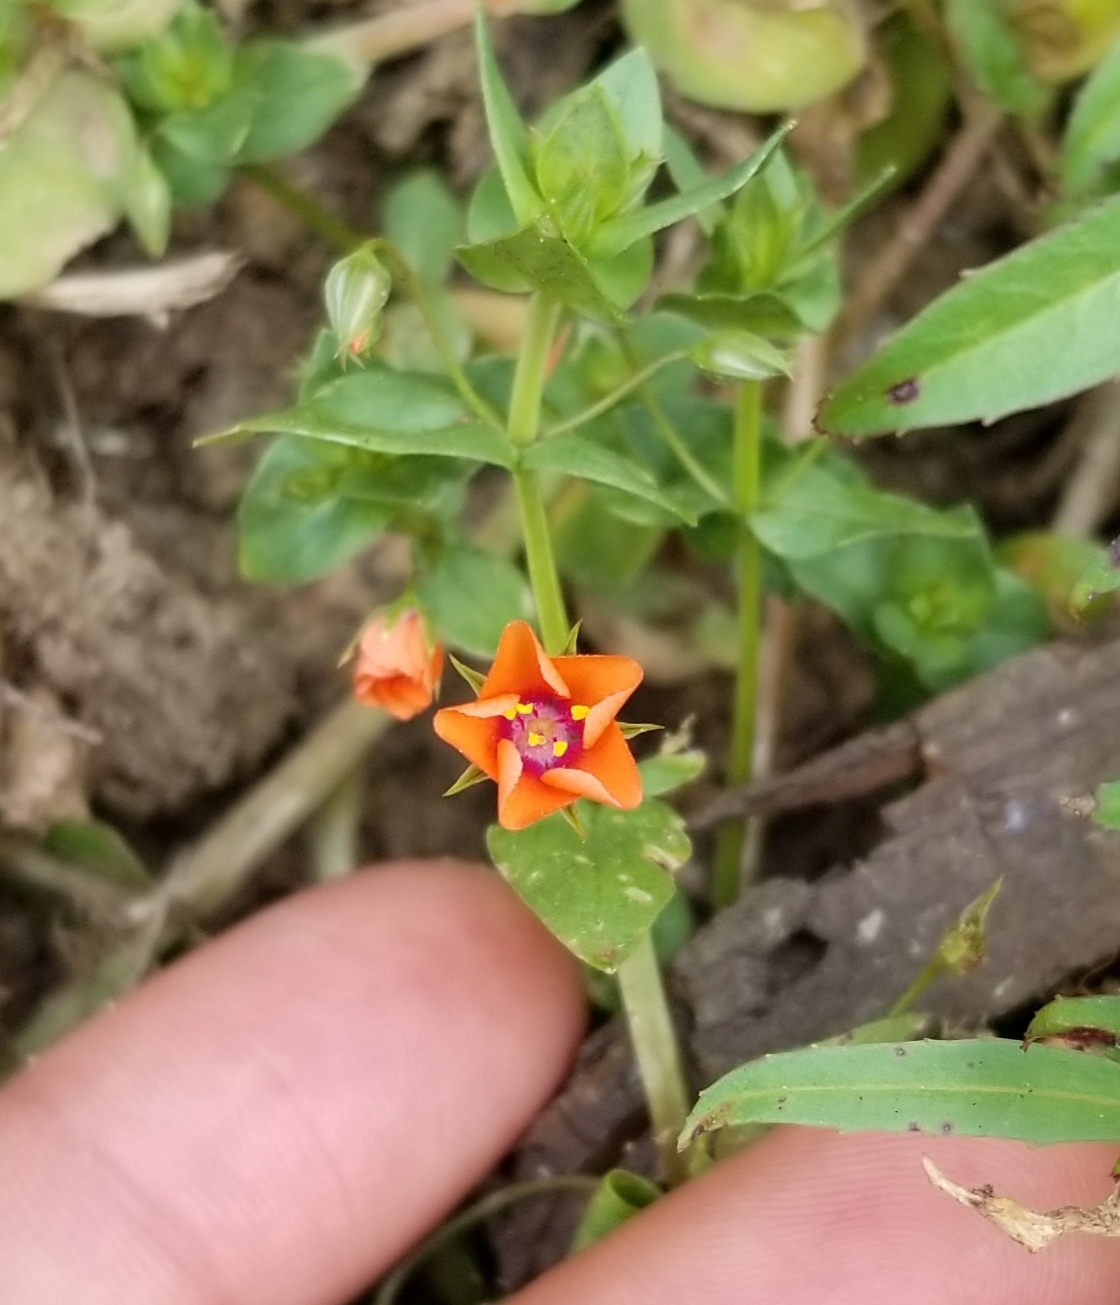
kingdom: Plantae
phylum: Tracheophyta
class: Magnoliopsida
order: Ericales
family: Primulaceae
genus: Lysimachia
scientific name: Lysimachia arvensis
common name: Scarlet pimpernel
